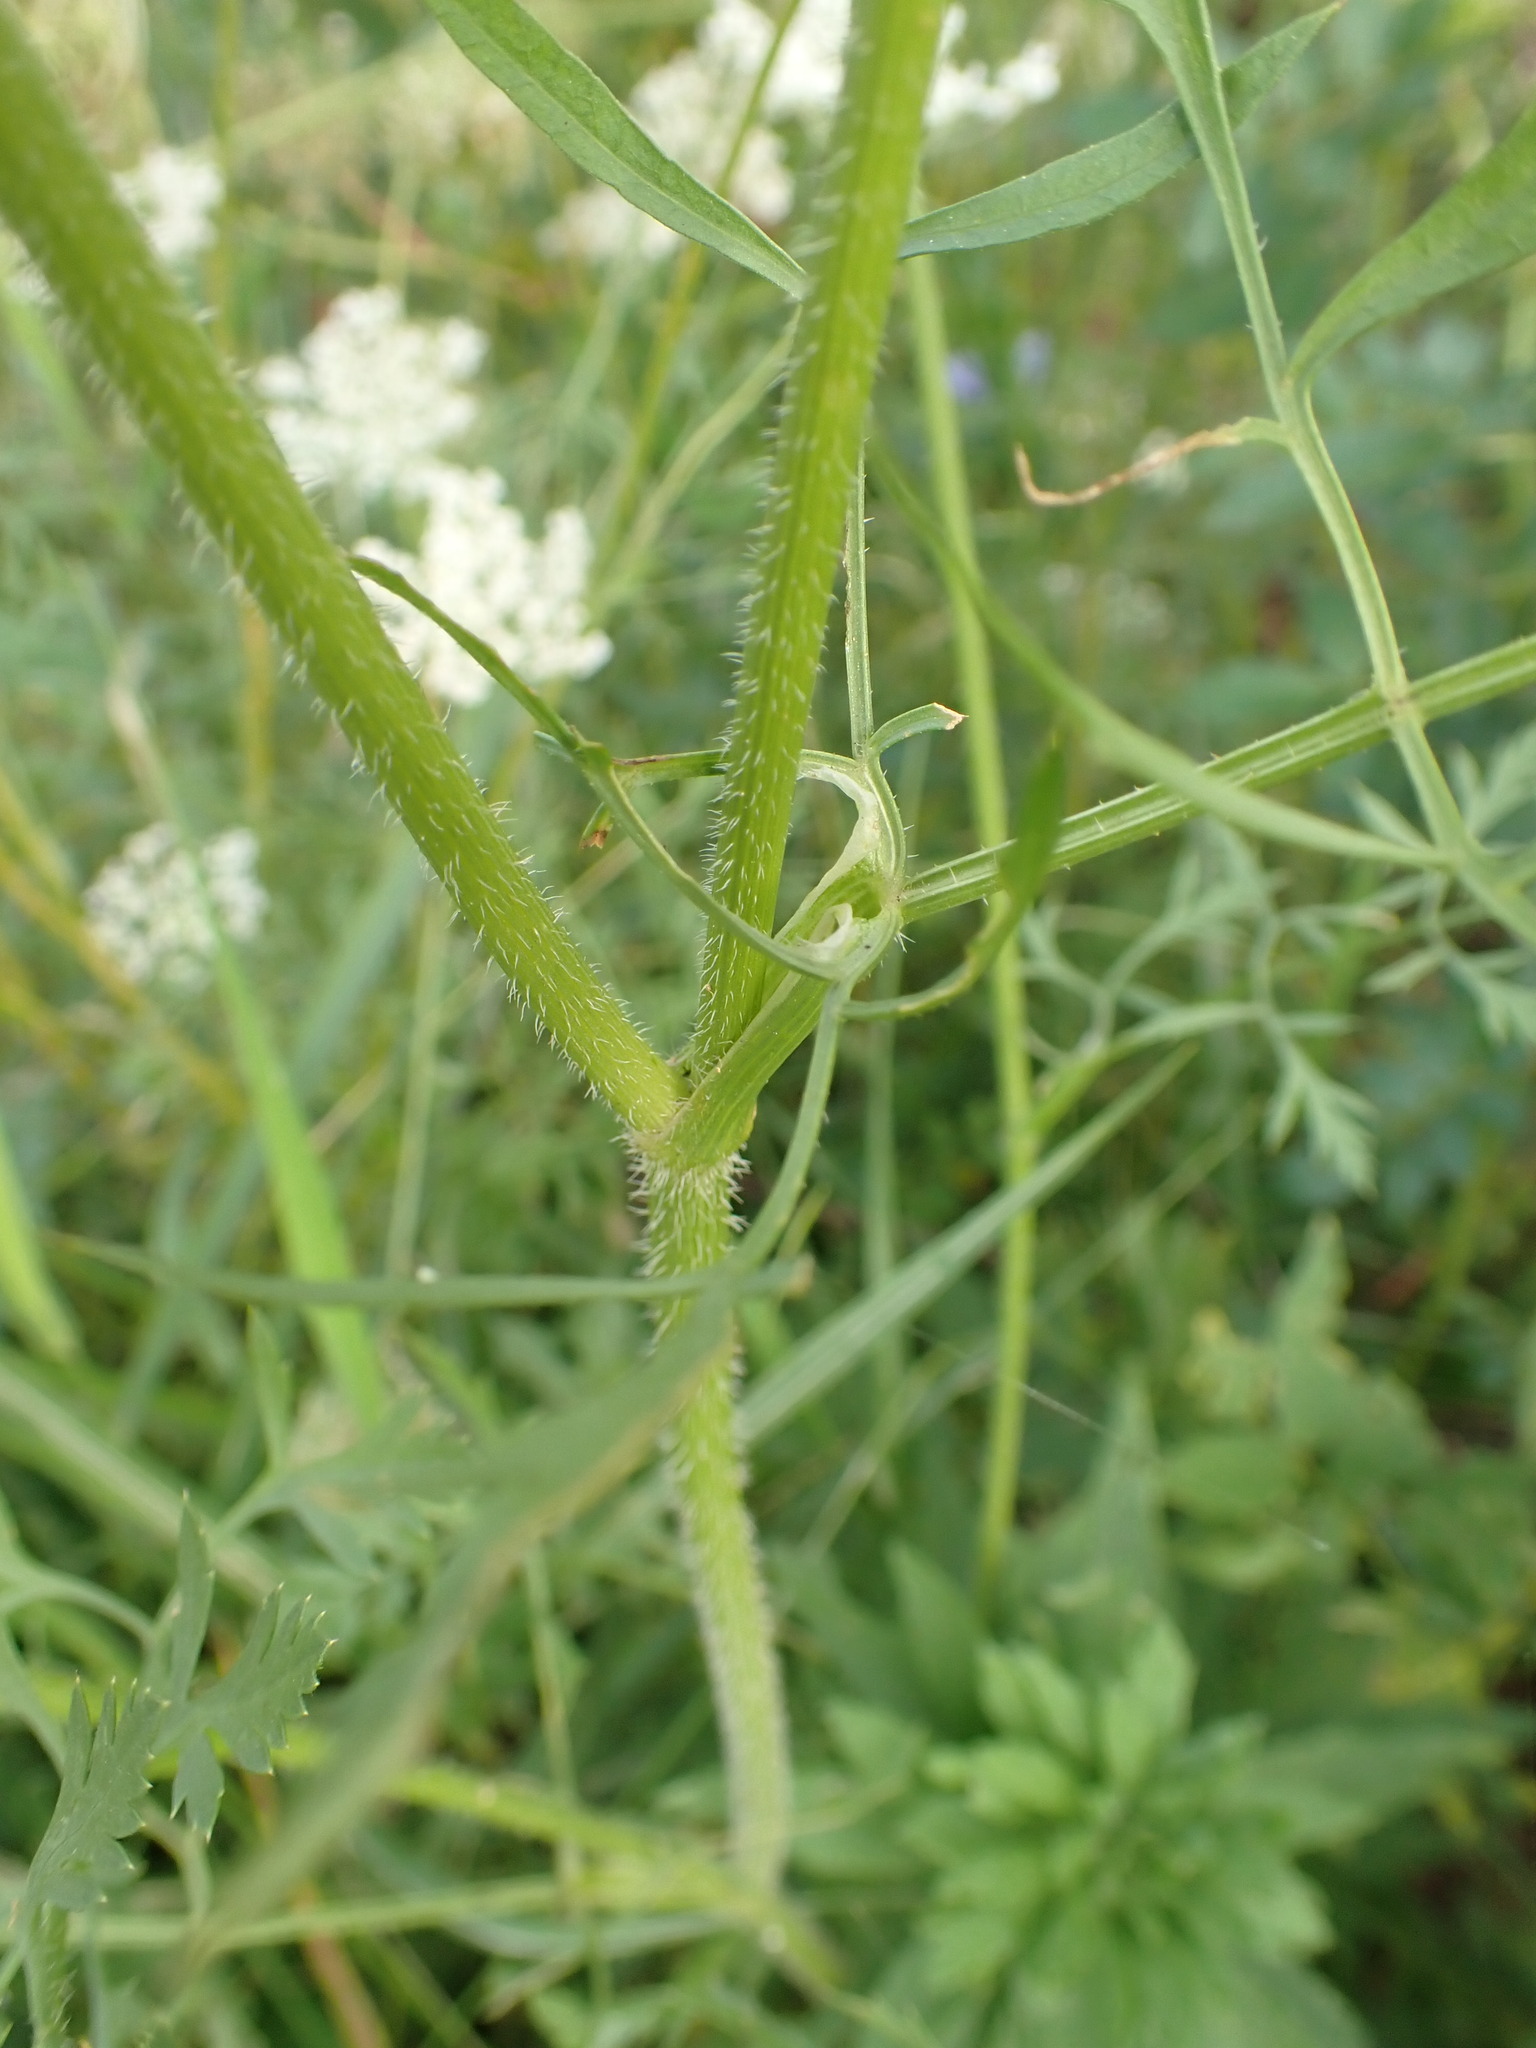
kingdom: Plantae
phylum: Tracheophyta
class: Magnoliopsida
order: Apiales
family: Apiaceae
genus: Daucus
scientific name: Daucus carota
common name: Wild carrot
